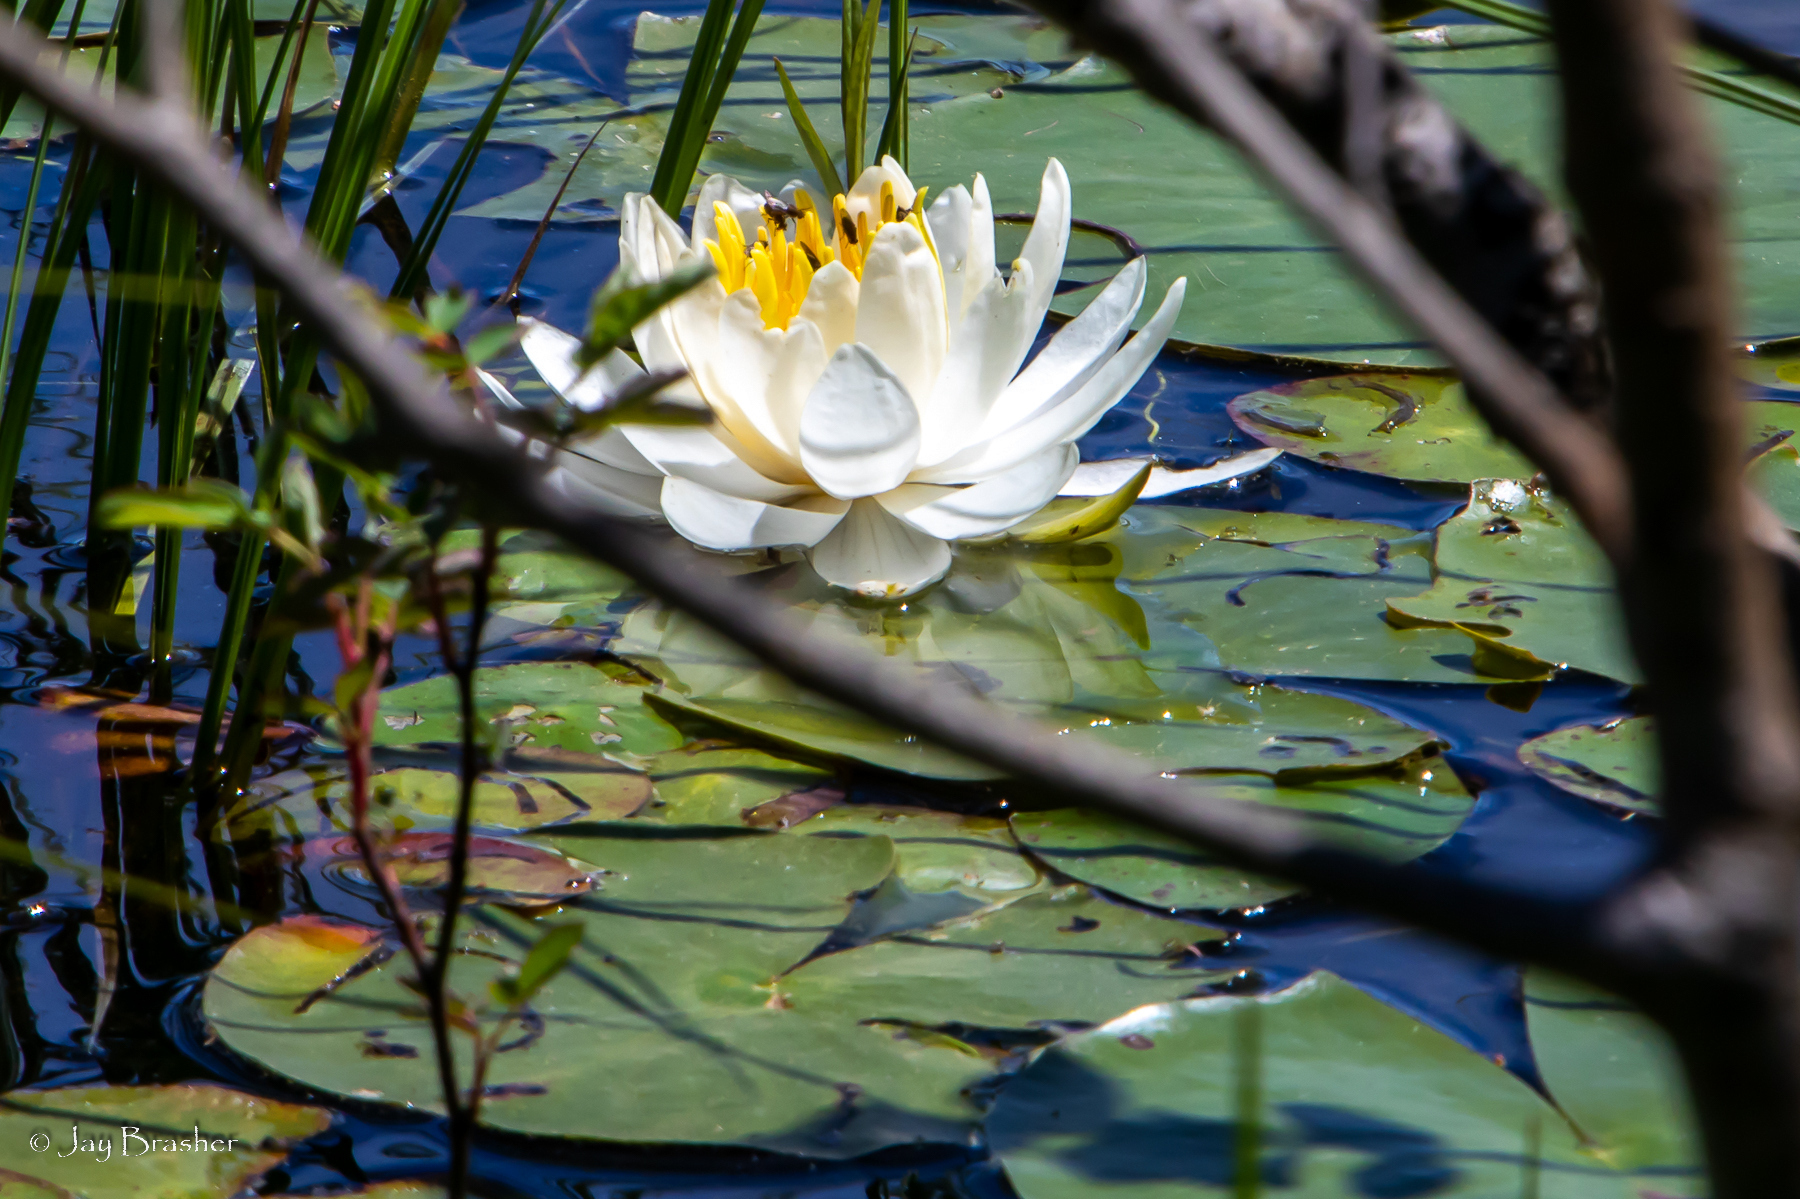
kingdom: Plantae
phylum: Tracheophyta
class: Magnoliopsida
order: Nymphaeales
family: Nymphaeaceae
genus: Nymphaea
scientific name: Nymphaea odorata
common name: Fragrant water-lily
